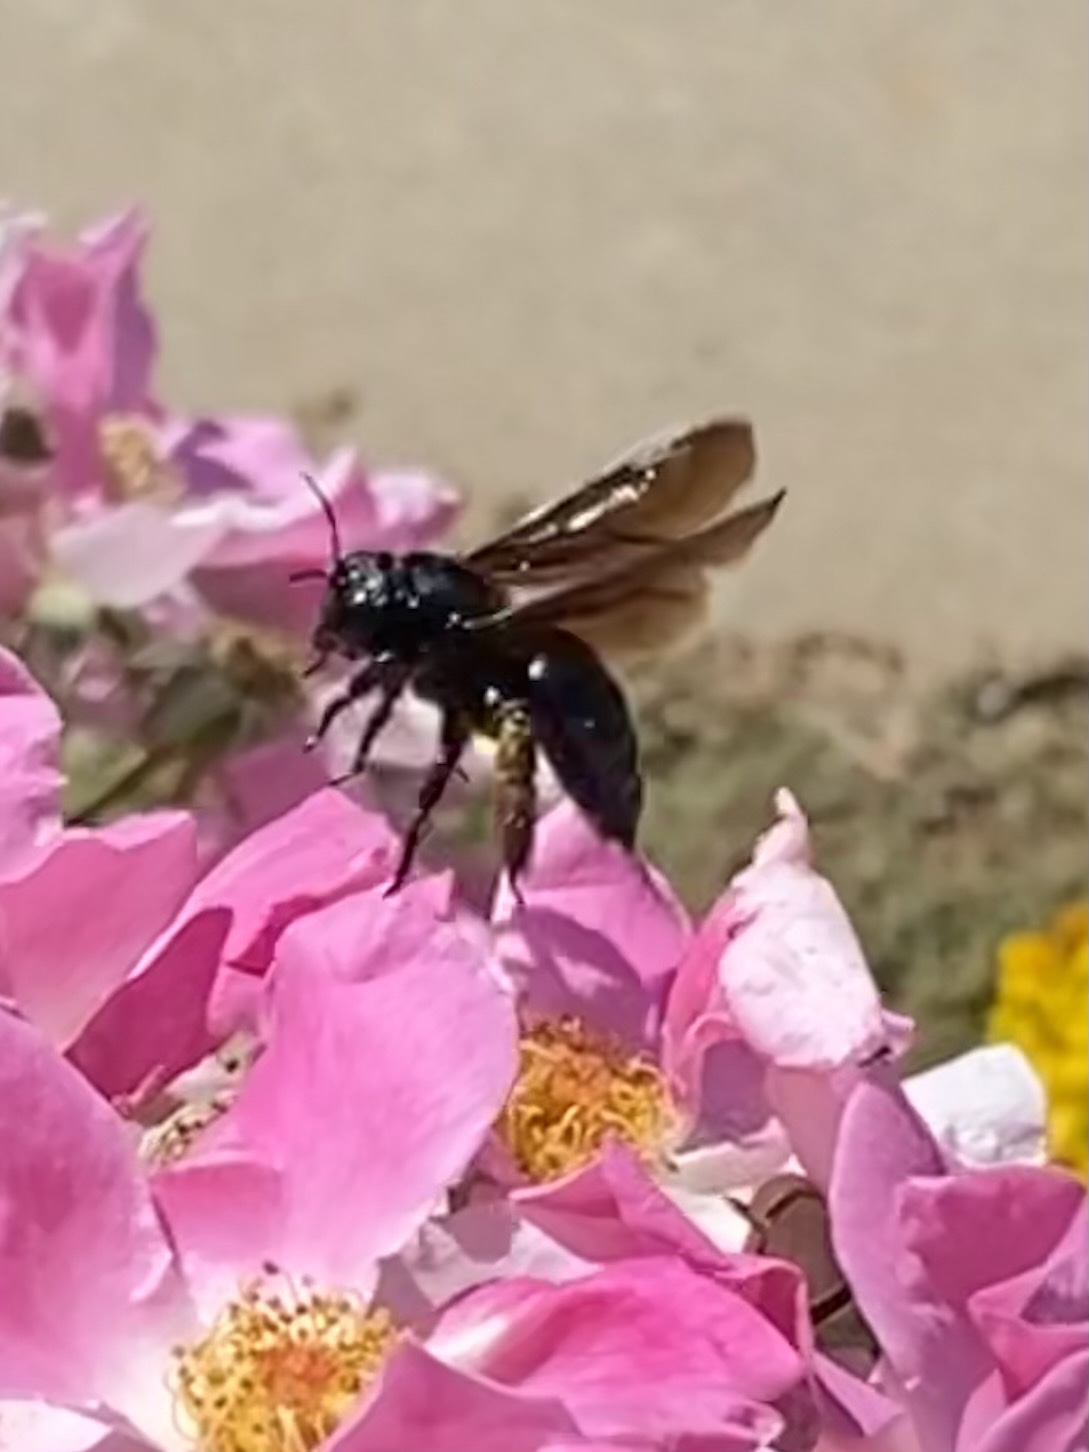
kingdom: Animalia
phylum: Arthropoda
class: Insecta
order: Hymenoptera
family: Apidae
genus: Xylocopa
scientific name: Xylocopa
